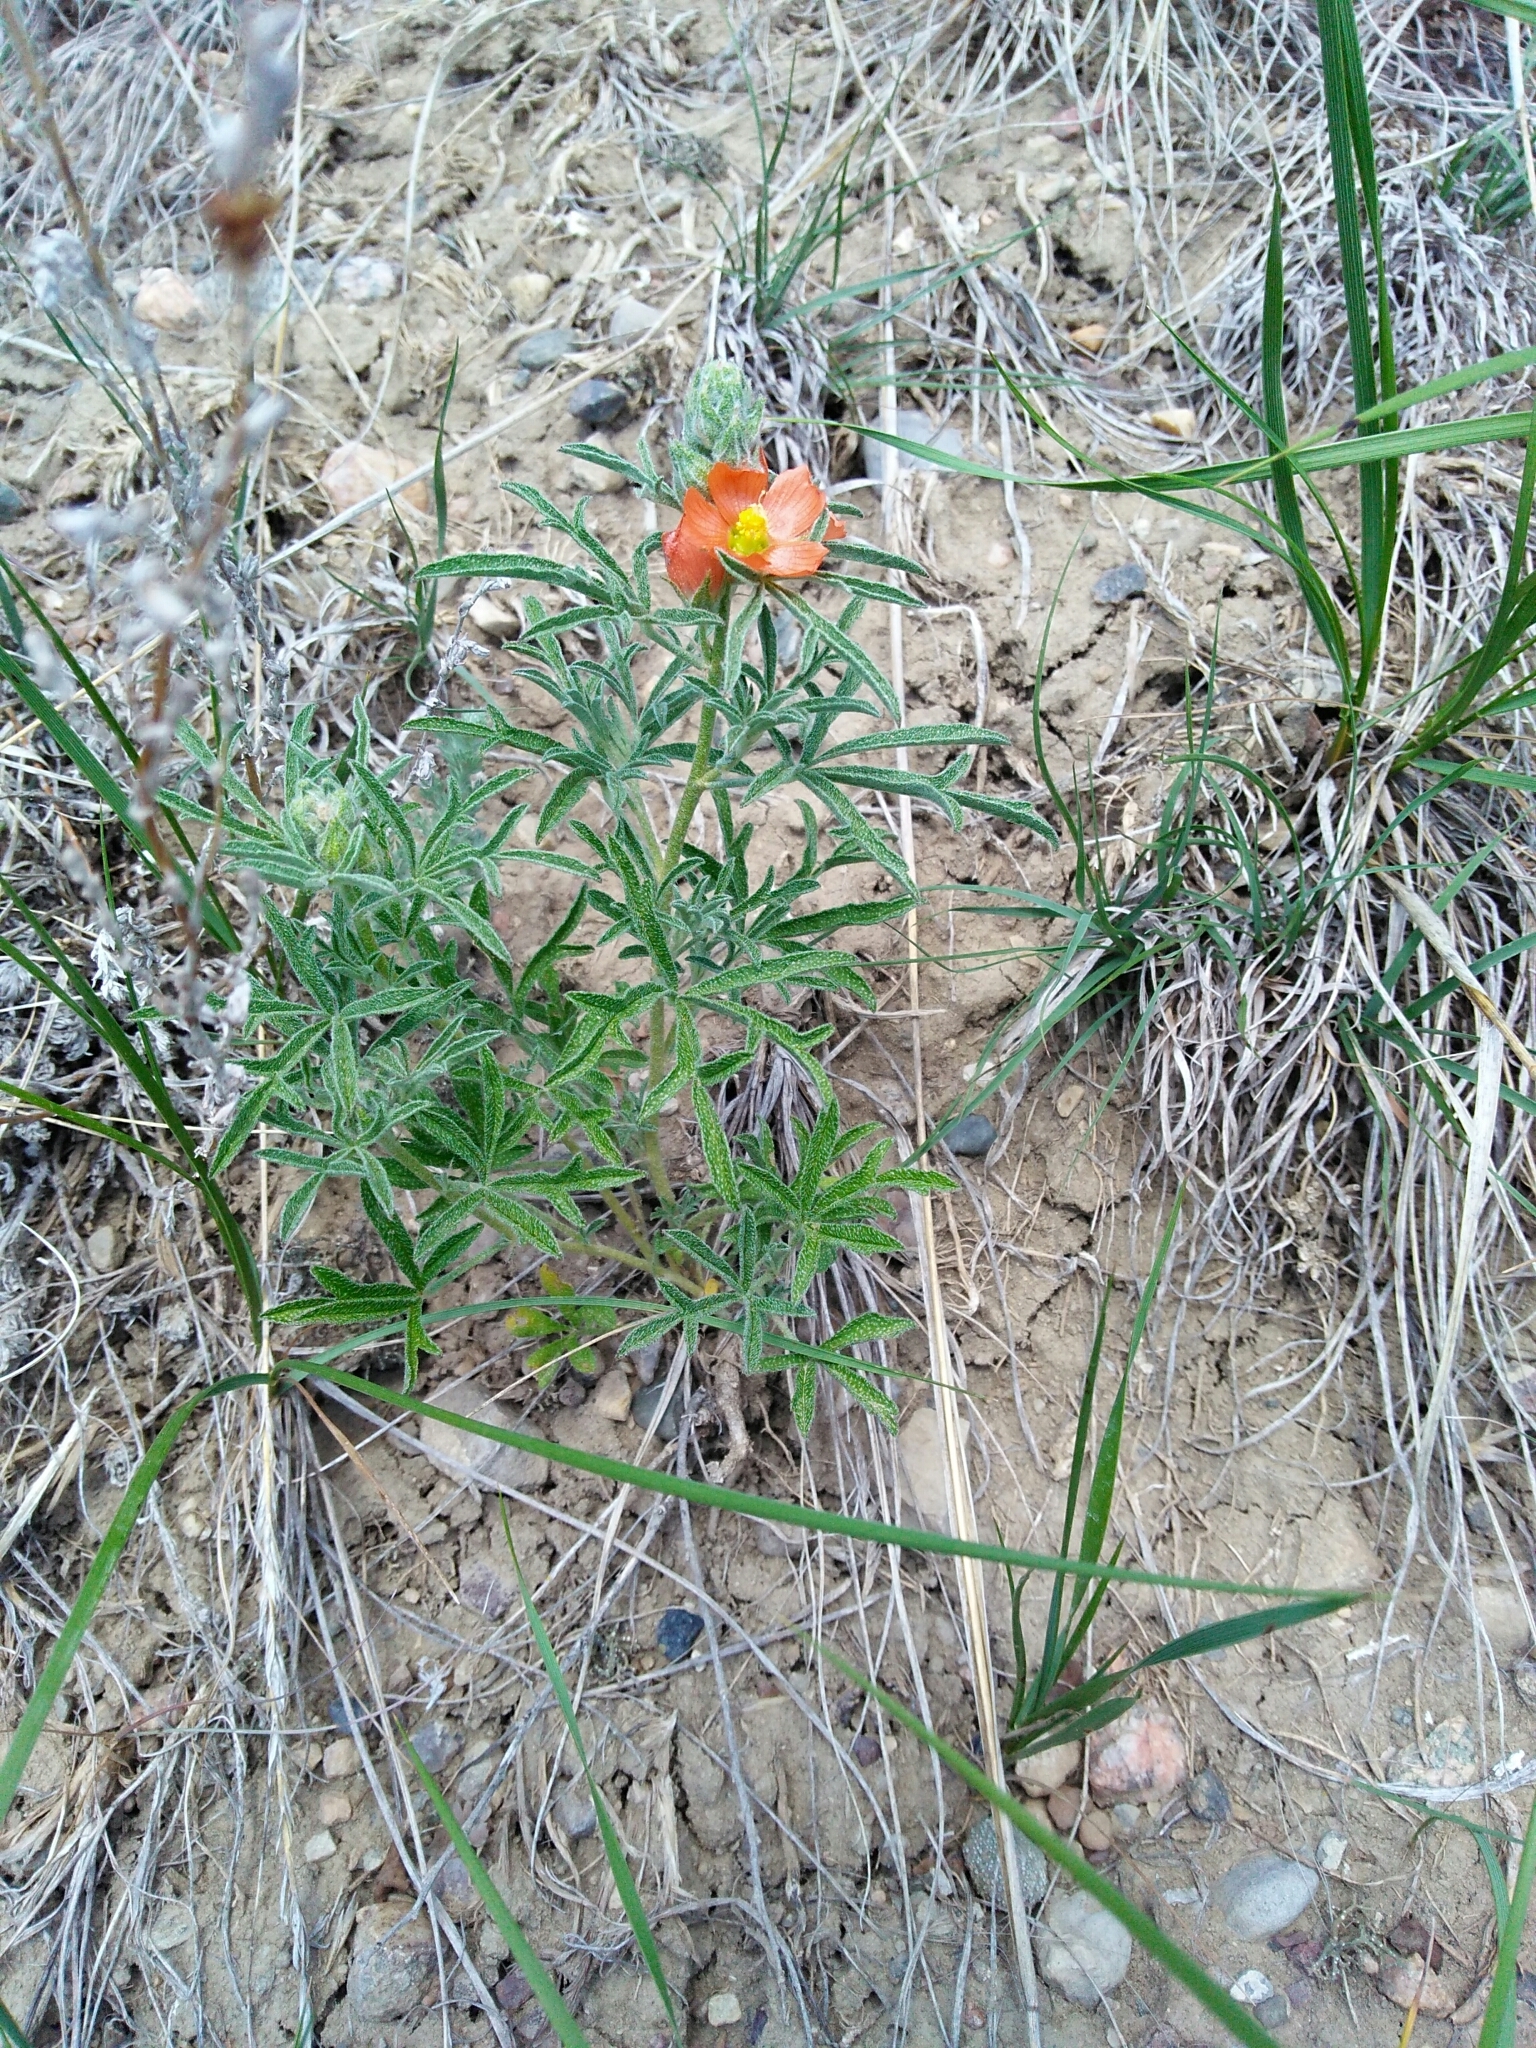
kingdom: Plantae
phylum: Tracheophyta
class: Magnoliopsida
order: Malvales
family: Malvaceae
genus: Sphaeralcea
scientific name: Sphaeralcea coccinea
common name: Moss-rose
